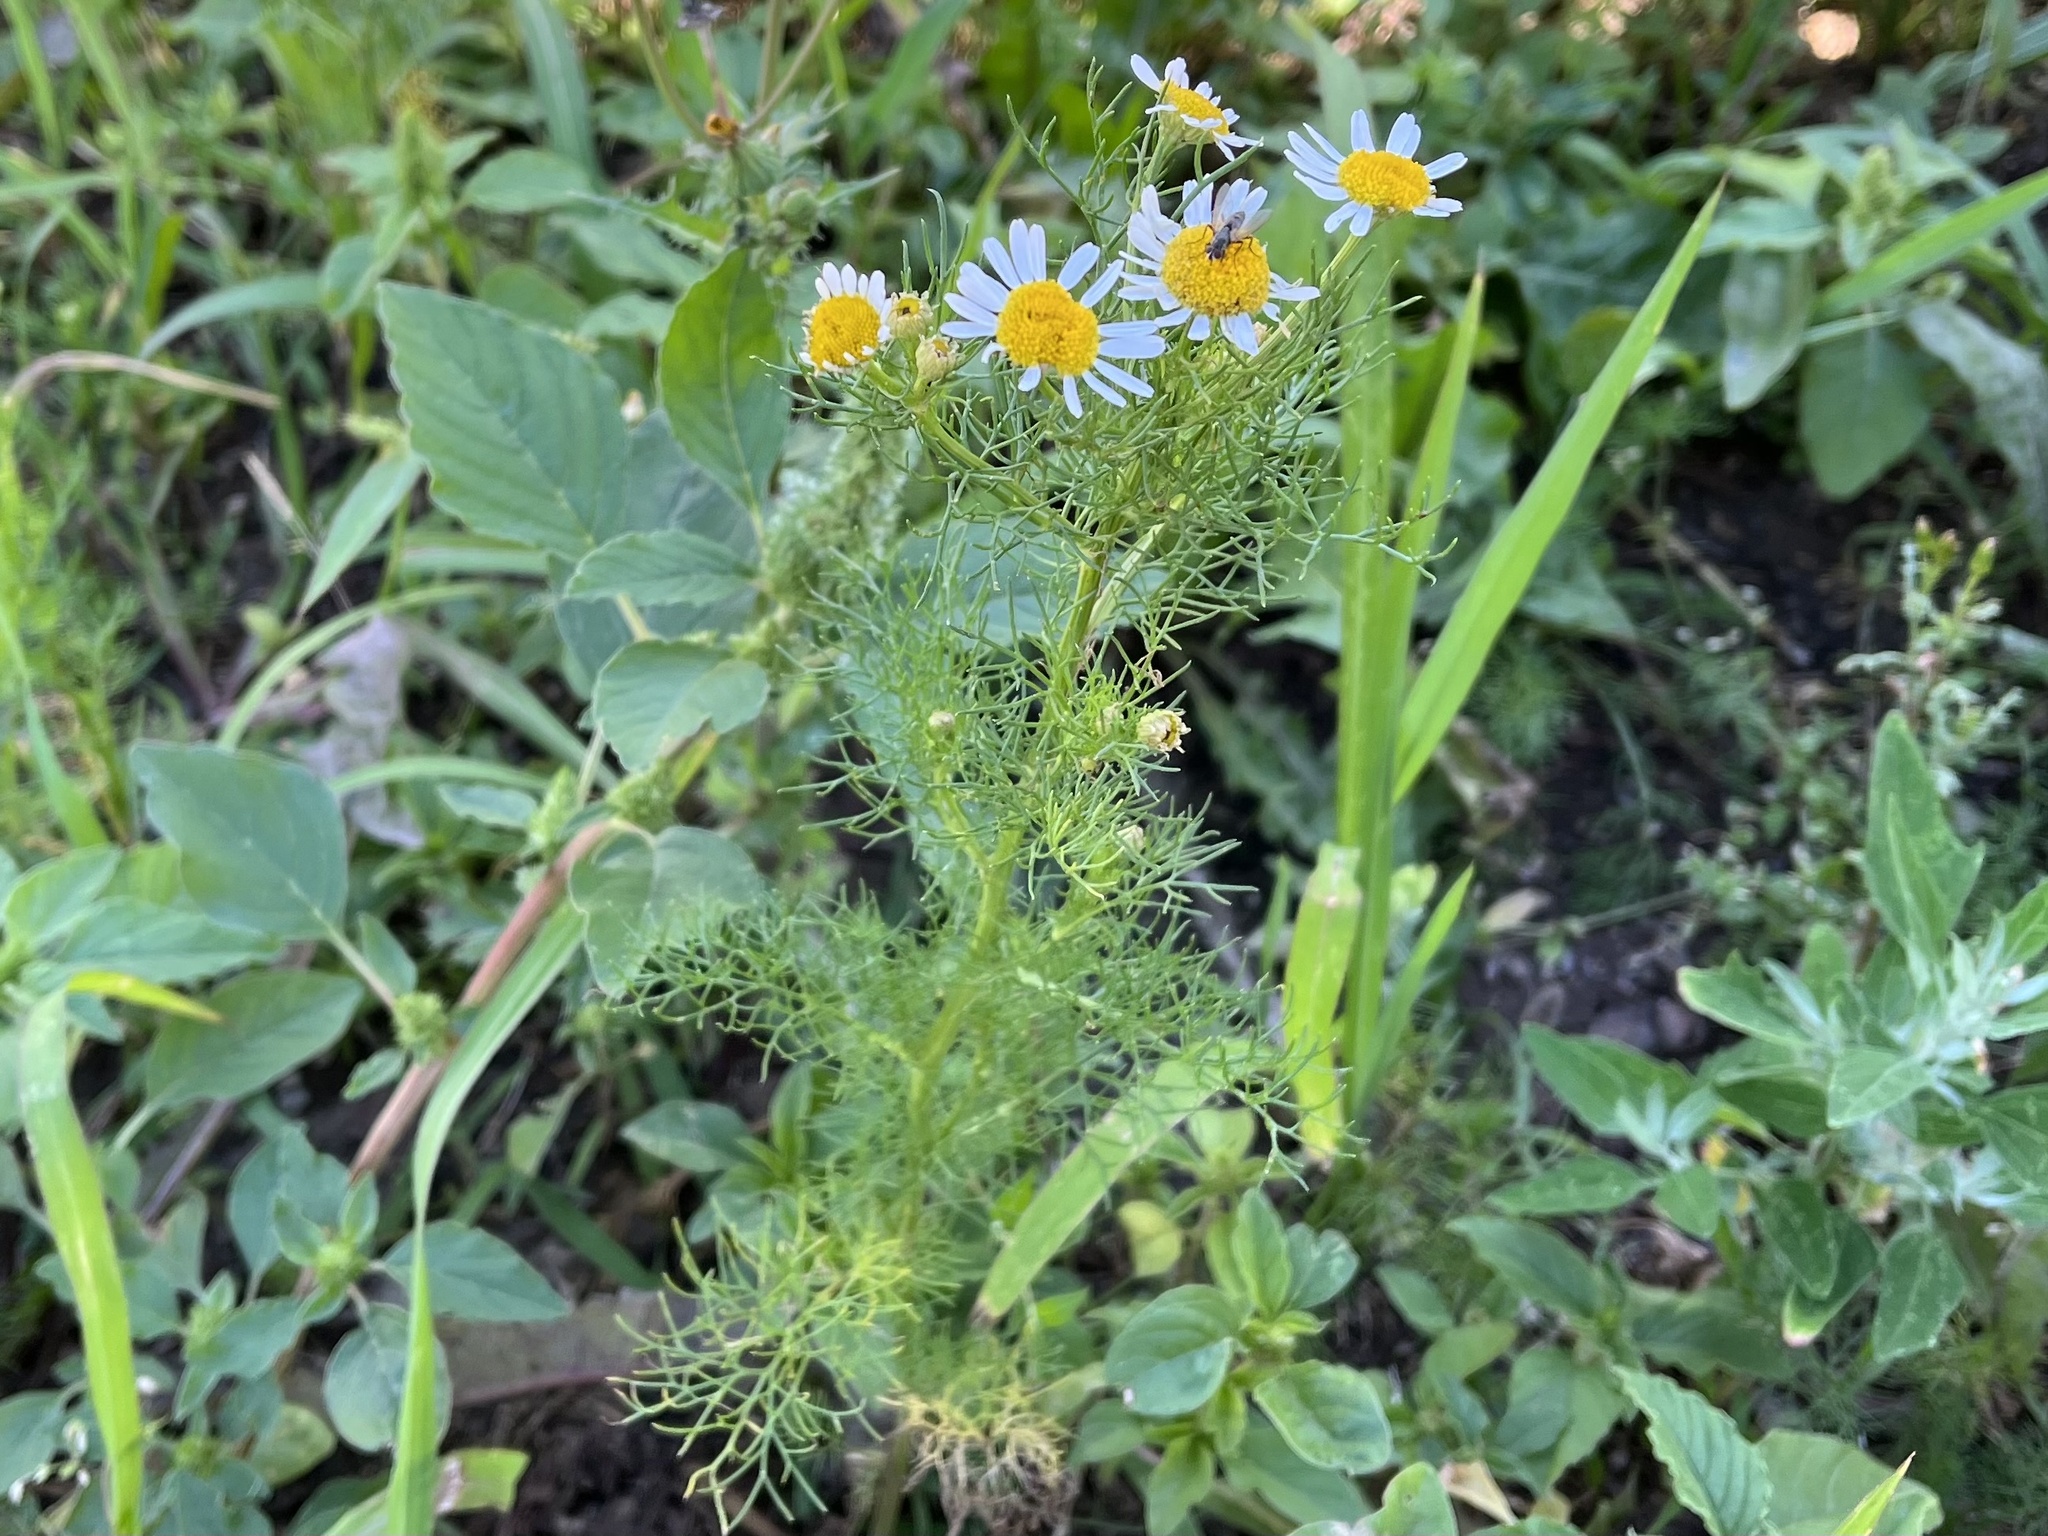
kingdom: Plantae
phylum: Tracheophyta
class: Magnoliopsida
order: Asterales
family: Asteraceae
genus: Tripleurospermum
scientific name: Tripleurospermum inodorum
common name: Scentless mayweed
